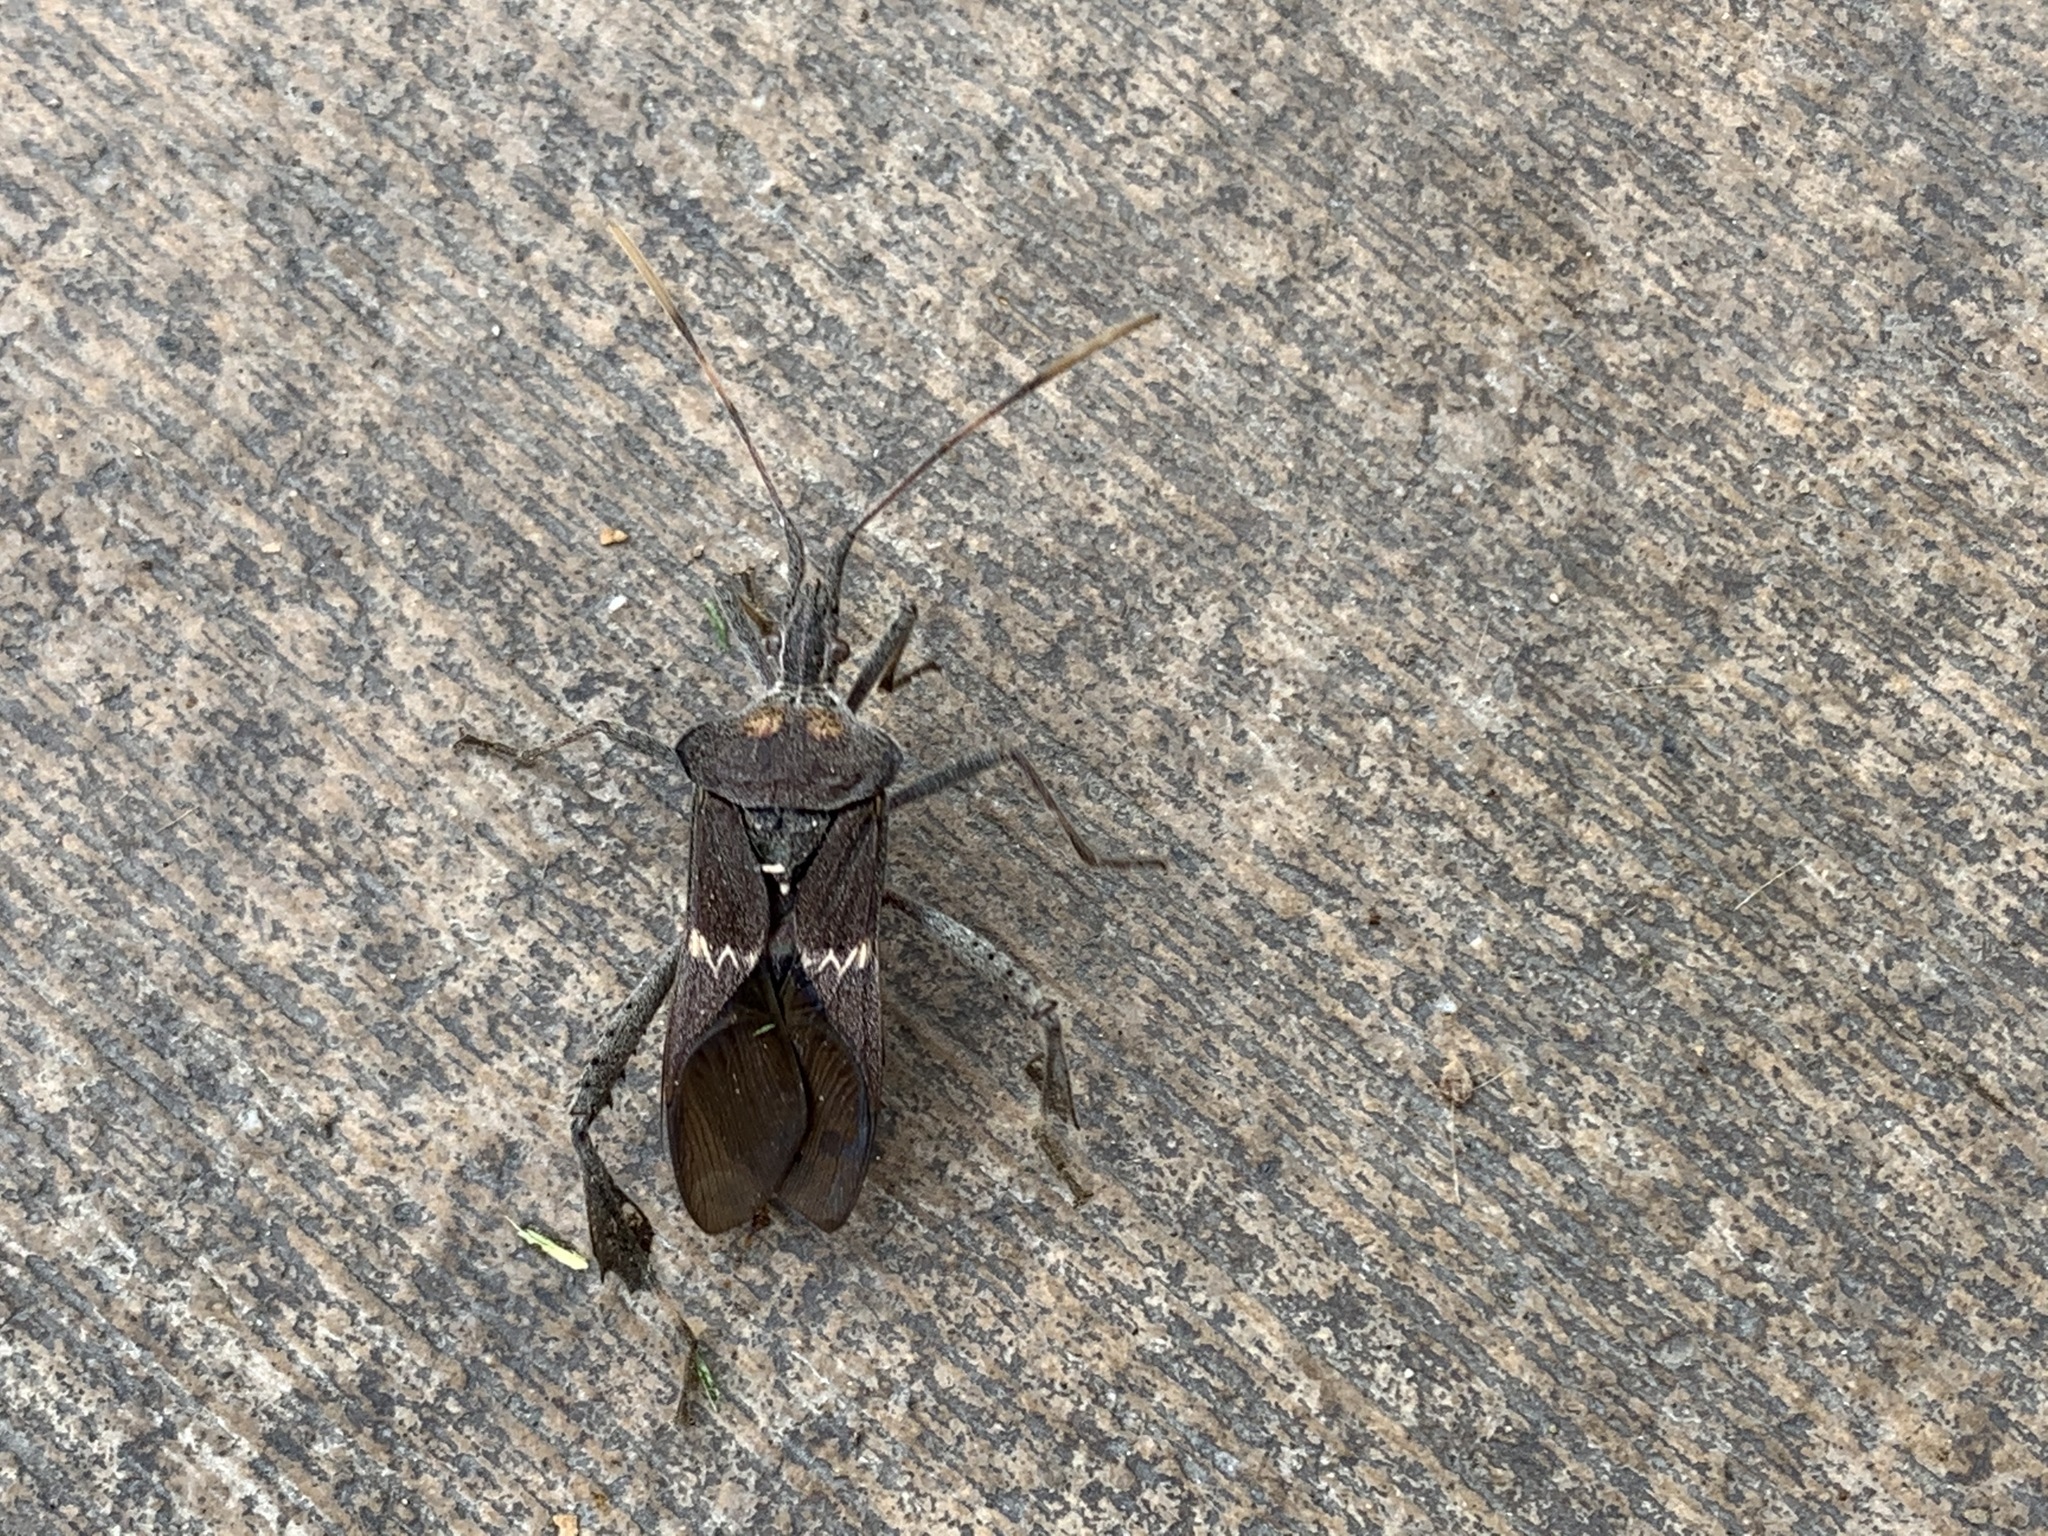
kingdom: Animalia
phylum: Arthropoda
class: Insecta
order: Hemiptera
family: Coreidae
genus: Leptoglossus
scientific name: Leptoglossus zonatus
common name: Large-legged bug
